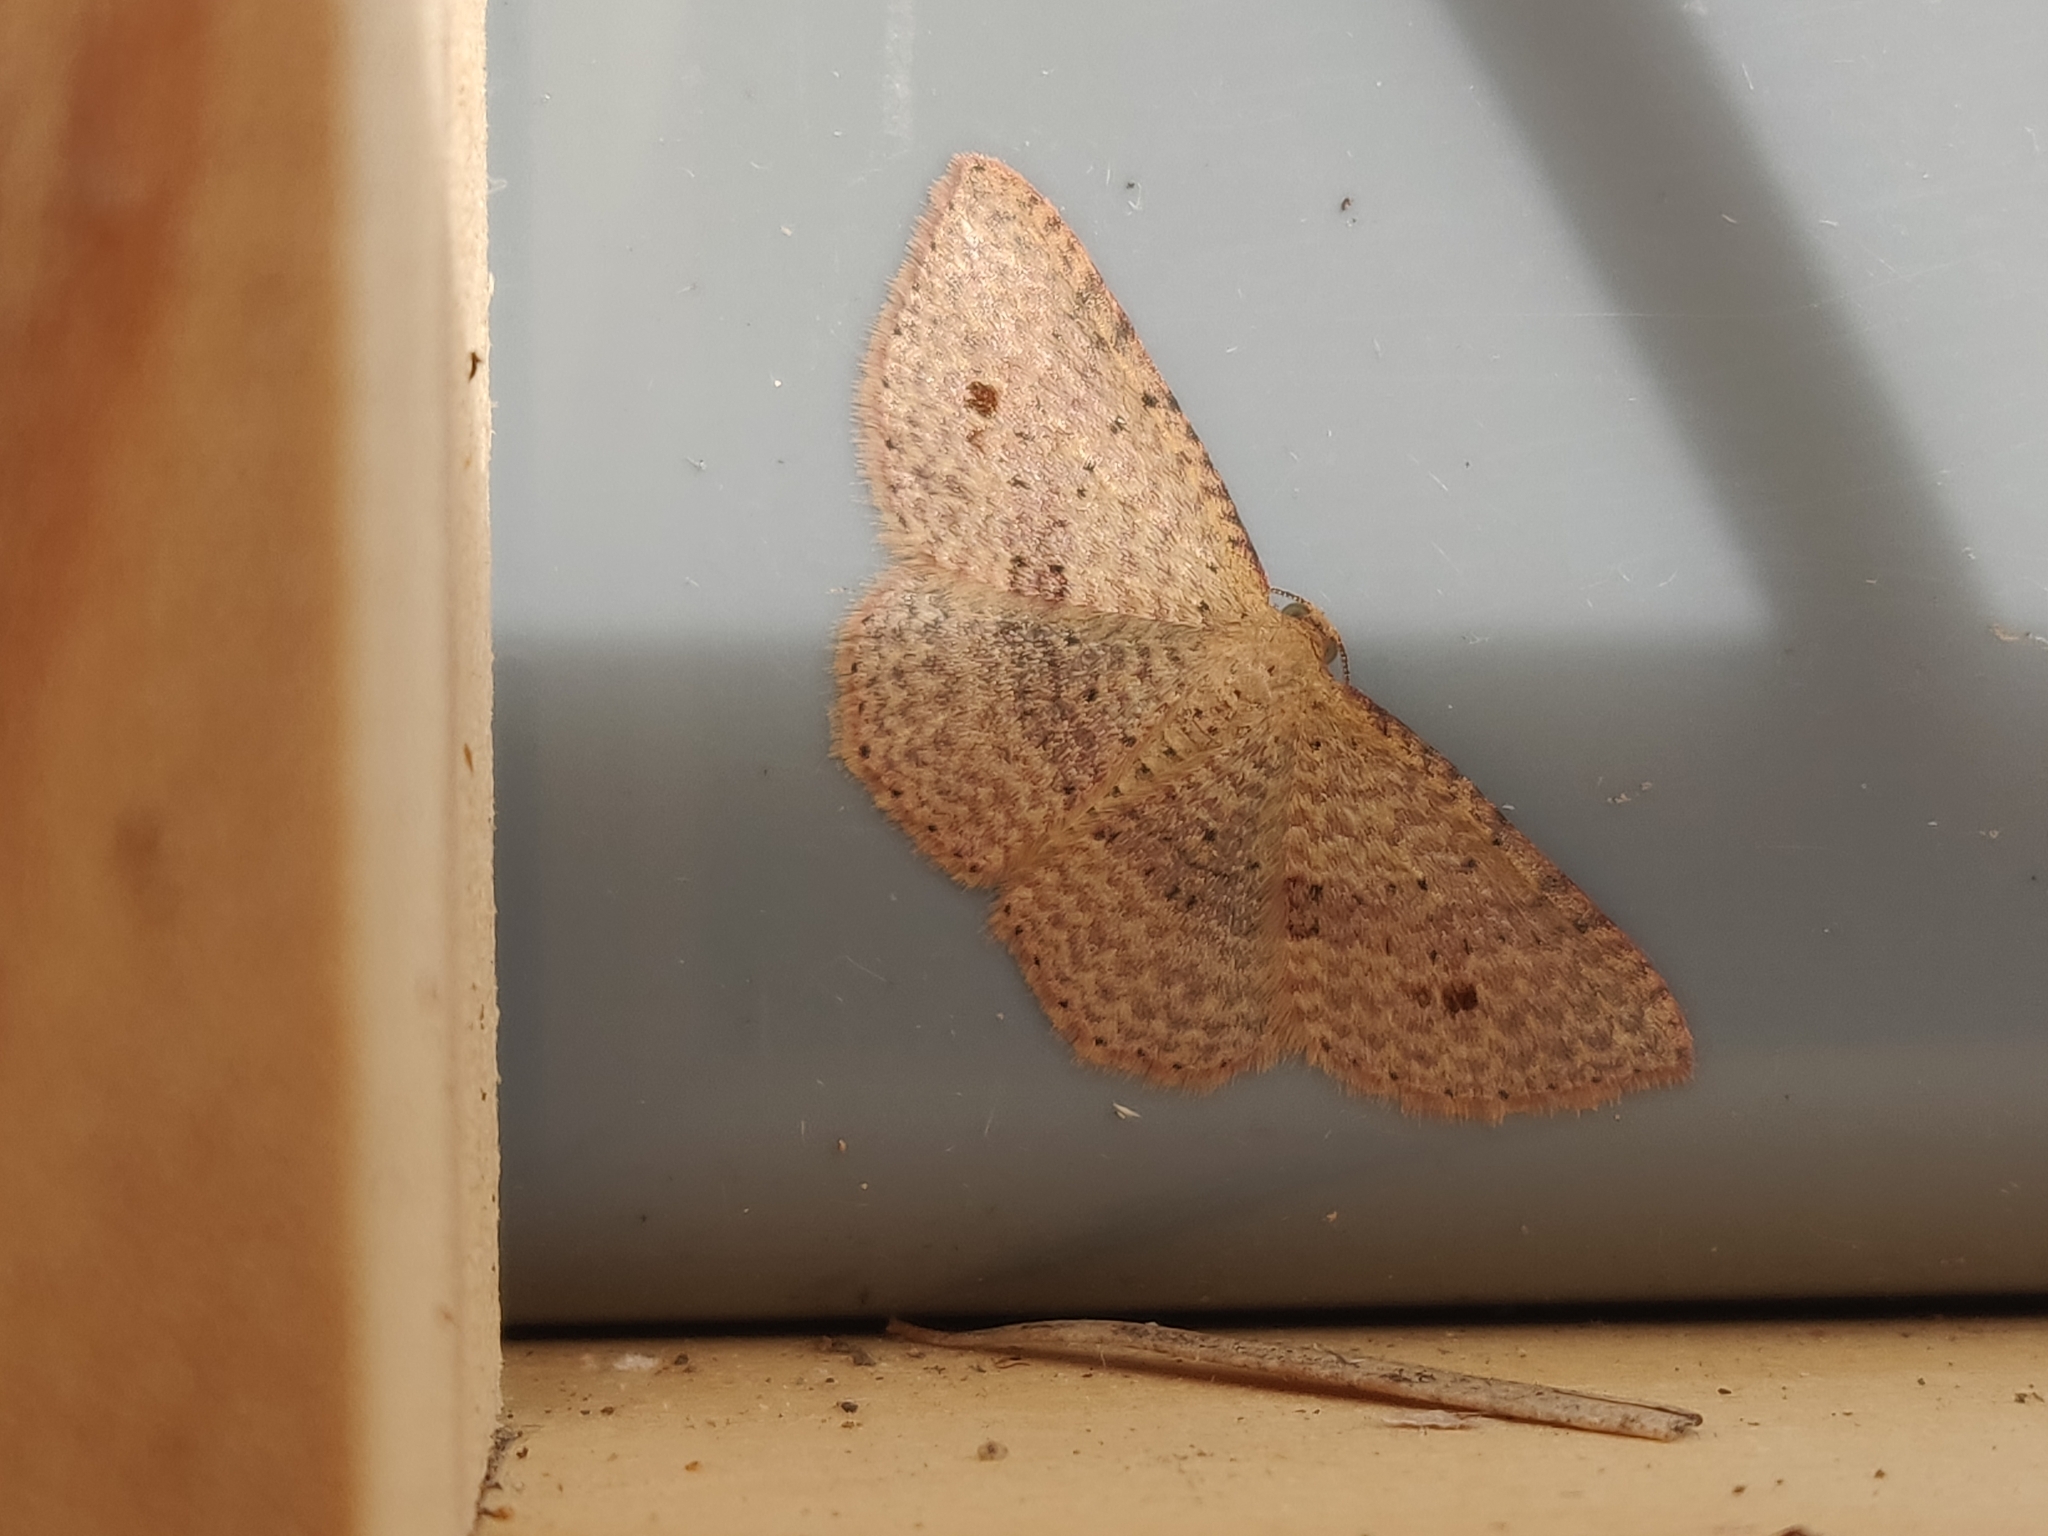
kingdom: Animalia
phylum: Arthropoda
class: Insecta
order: Lepidoptera
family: Geometridae
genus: Epicyme
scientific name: Epicyme rubropunctaria
